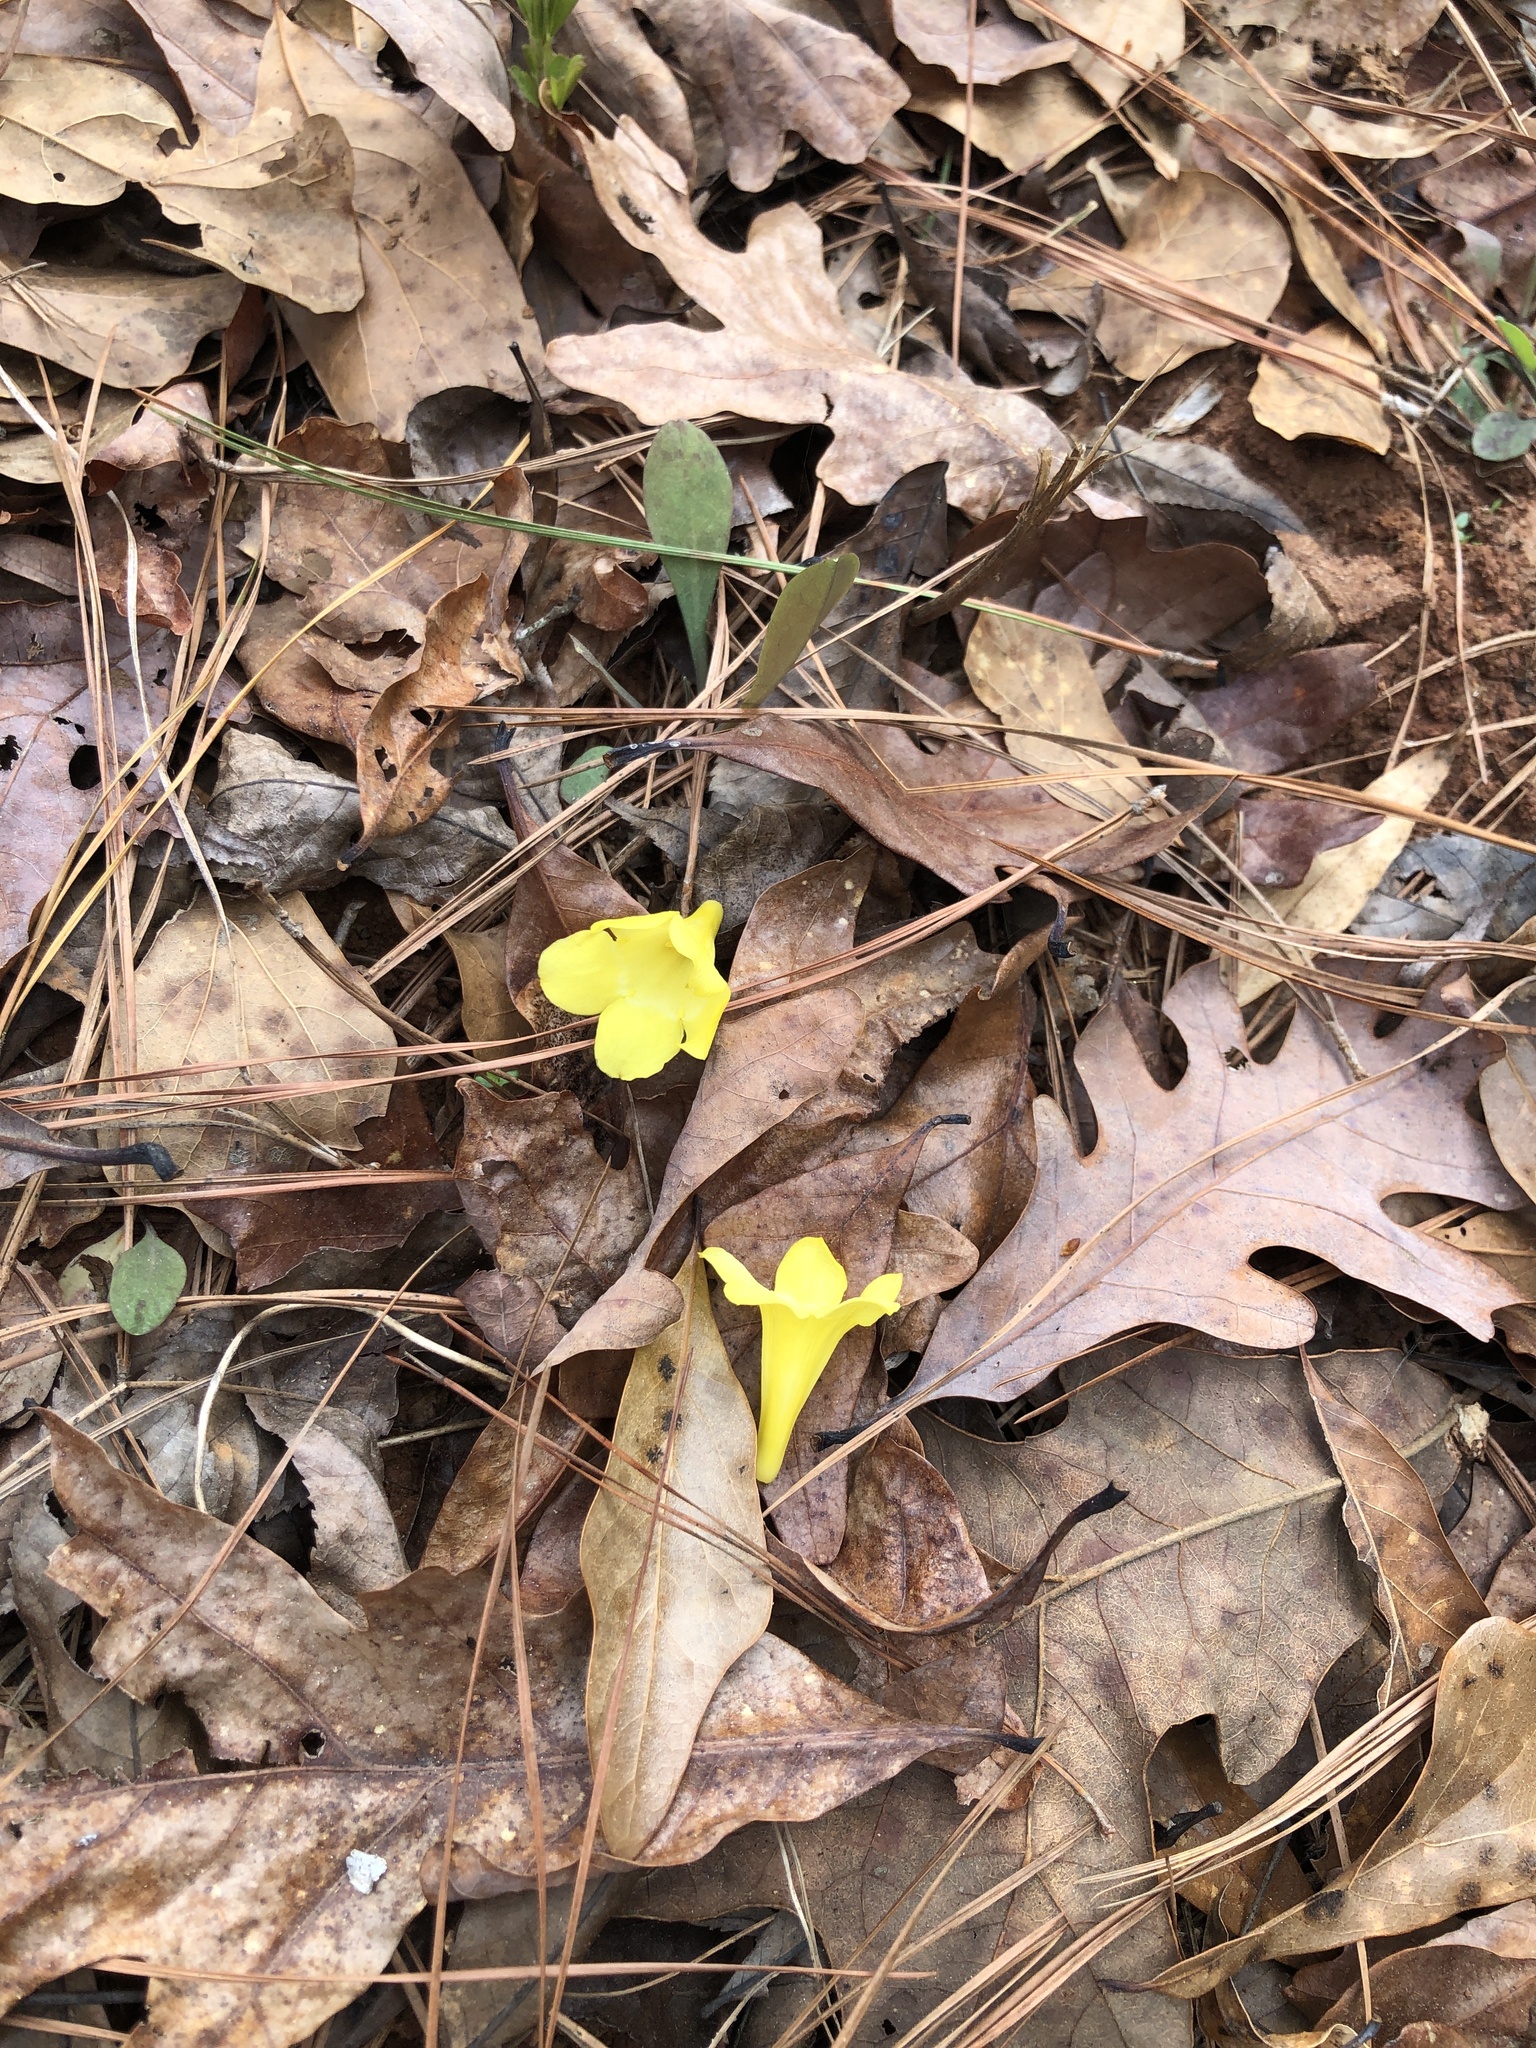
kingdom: Plantae
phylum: Tracheophyta
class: Magnoliopsida
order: Gentianales
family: Gelsemiaceae
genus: Gelsemium
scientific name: Gelsemium sempervirens
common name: Carolina-jasmine
